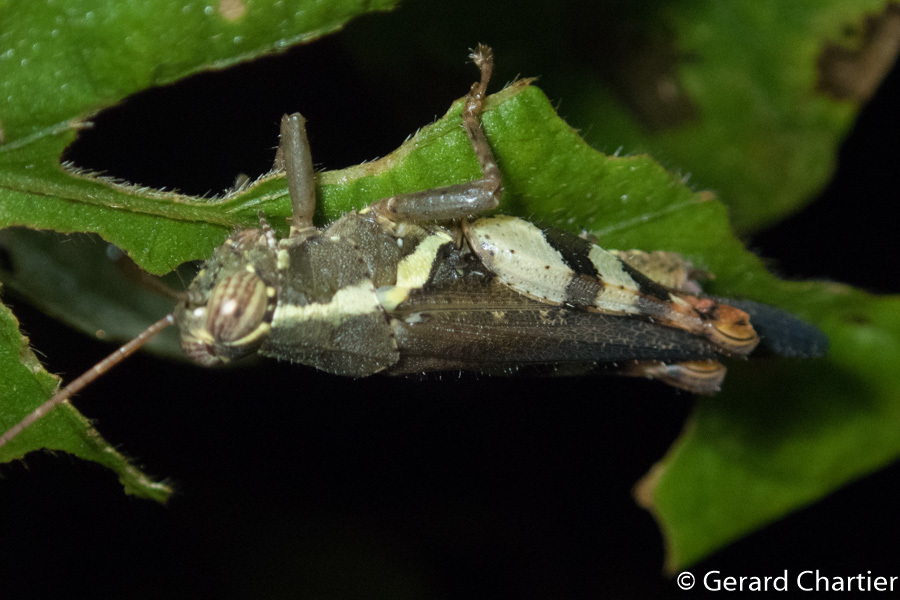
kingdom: Animalia
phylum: Arthropoda
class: Insecta
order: Orthoptera
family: Acrididae
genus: Xenocatantops
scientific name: Xenocatantops humile
